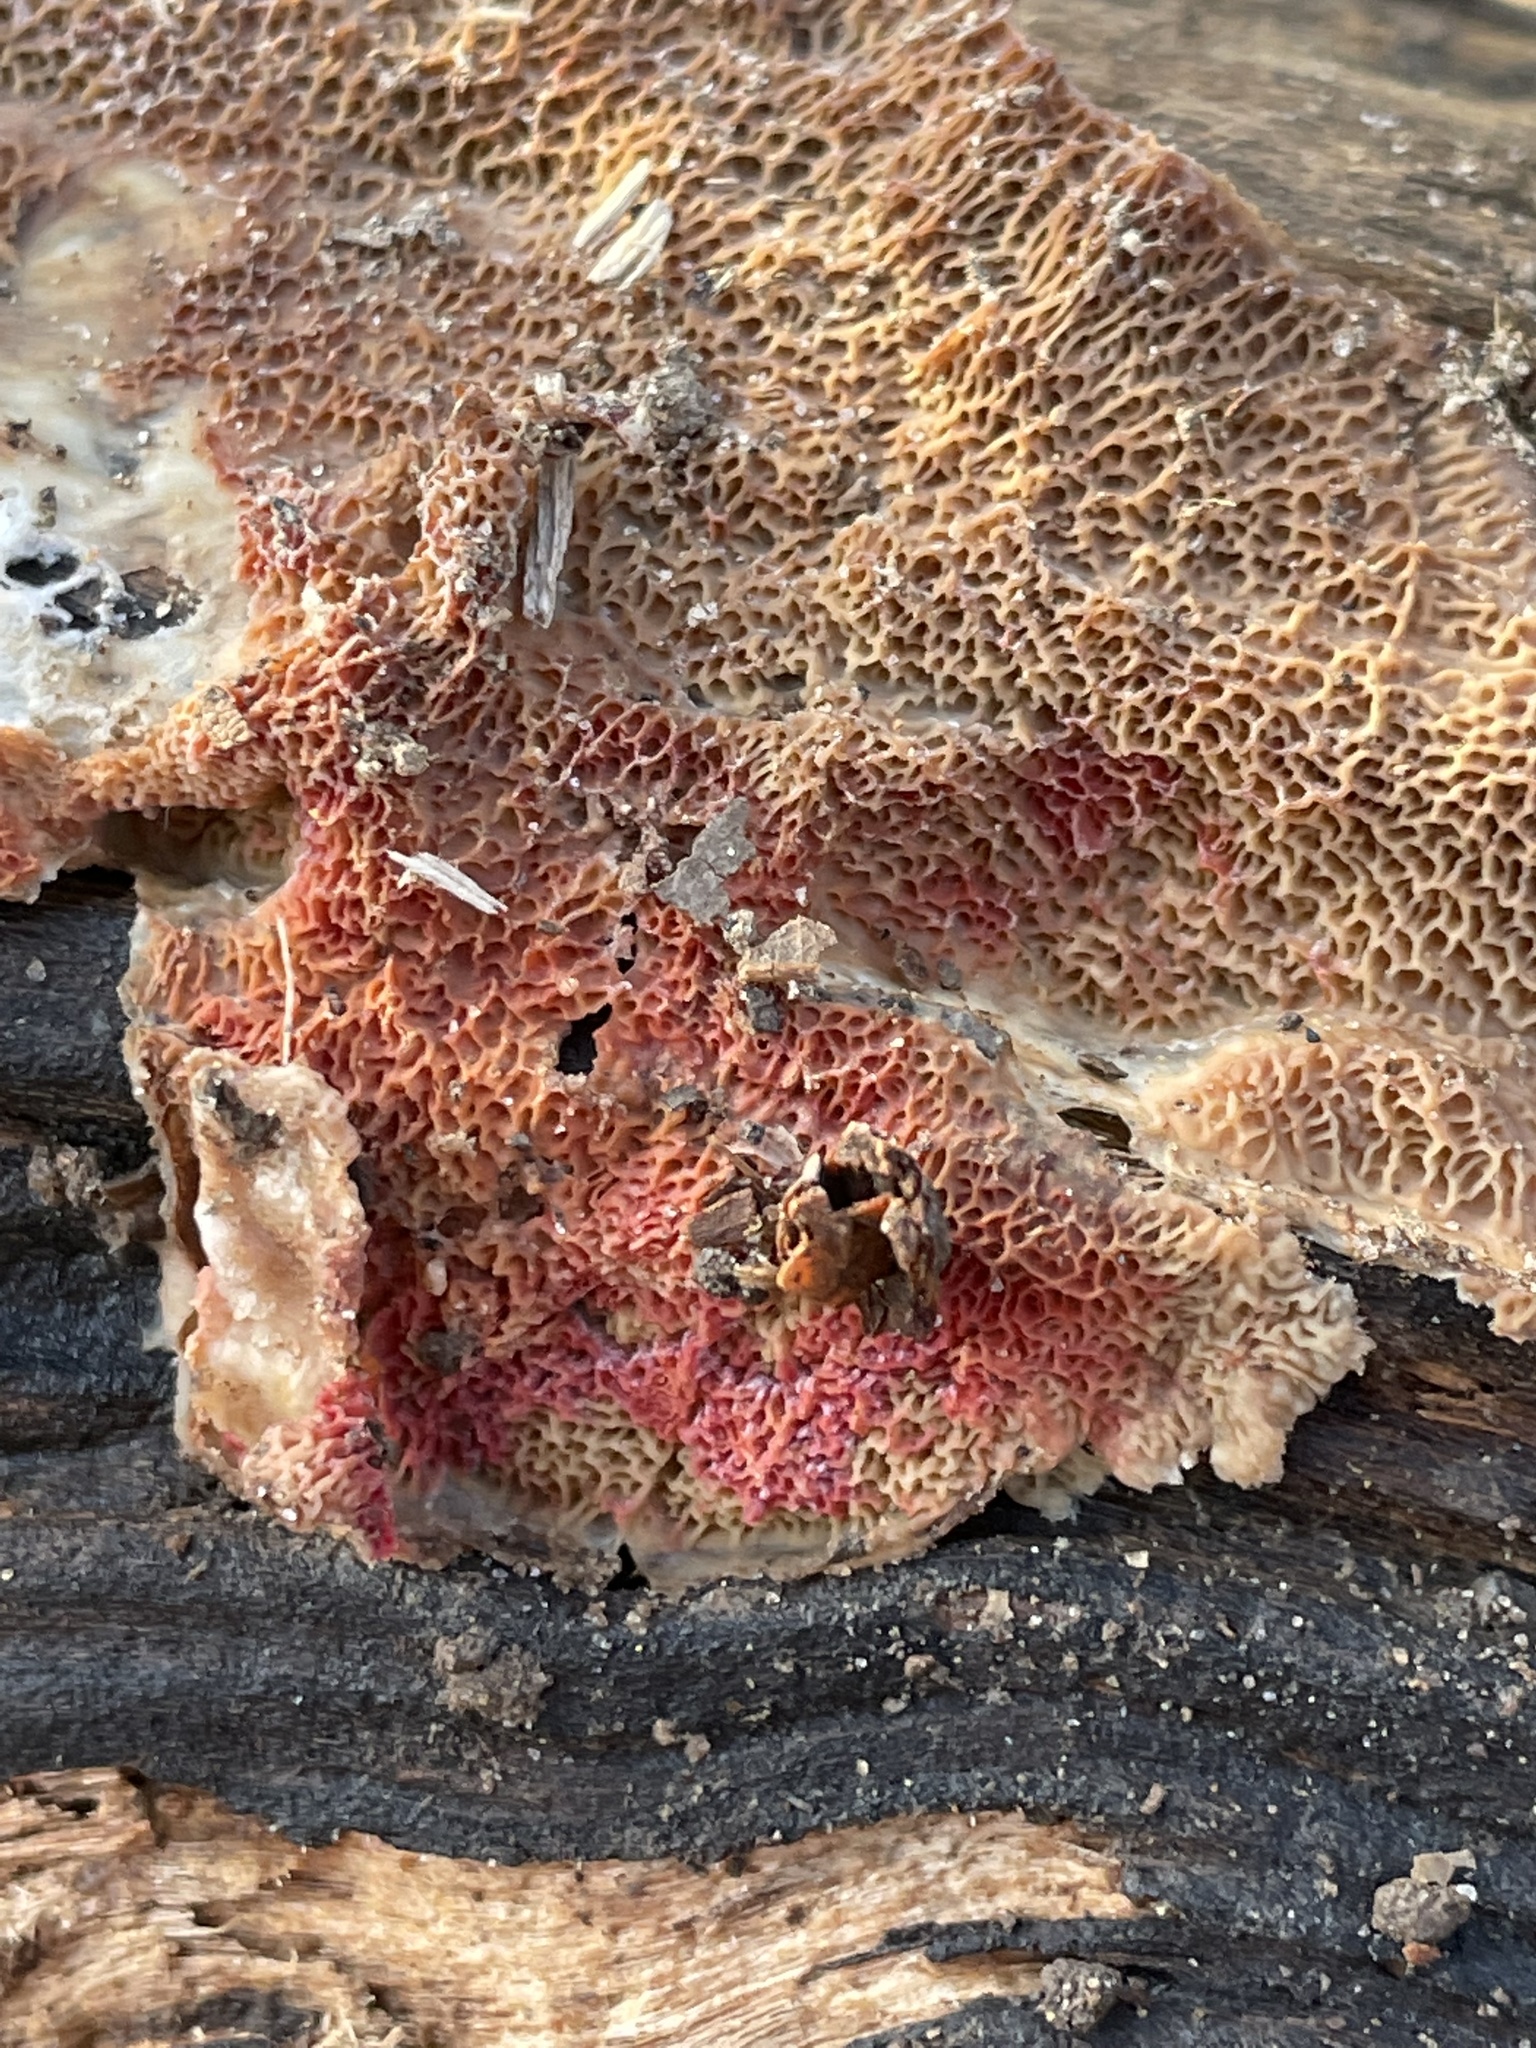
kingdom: Fungi
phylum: Ascomycota
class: Sordariomycetes
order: Hypocreales
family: Hypocreaceae
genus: Hypomyces
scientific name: Hypomyces aurantius
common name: Orange polypore mould
